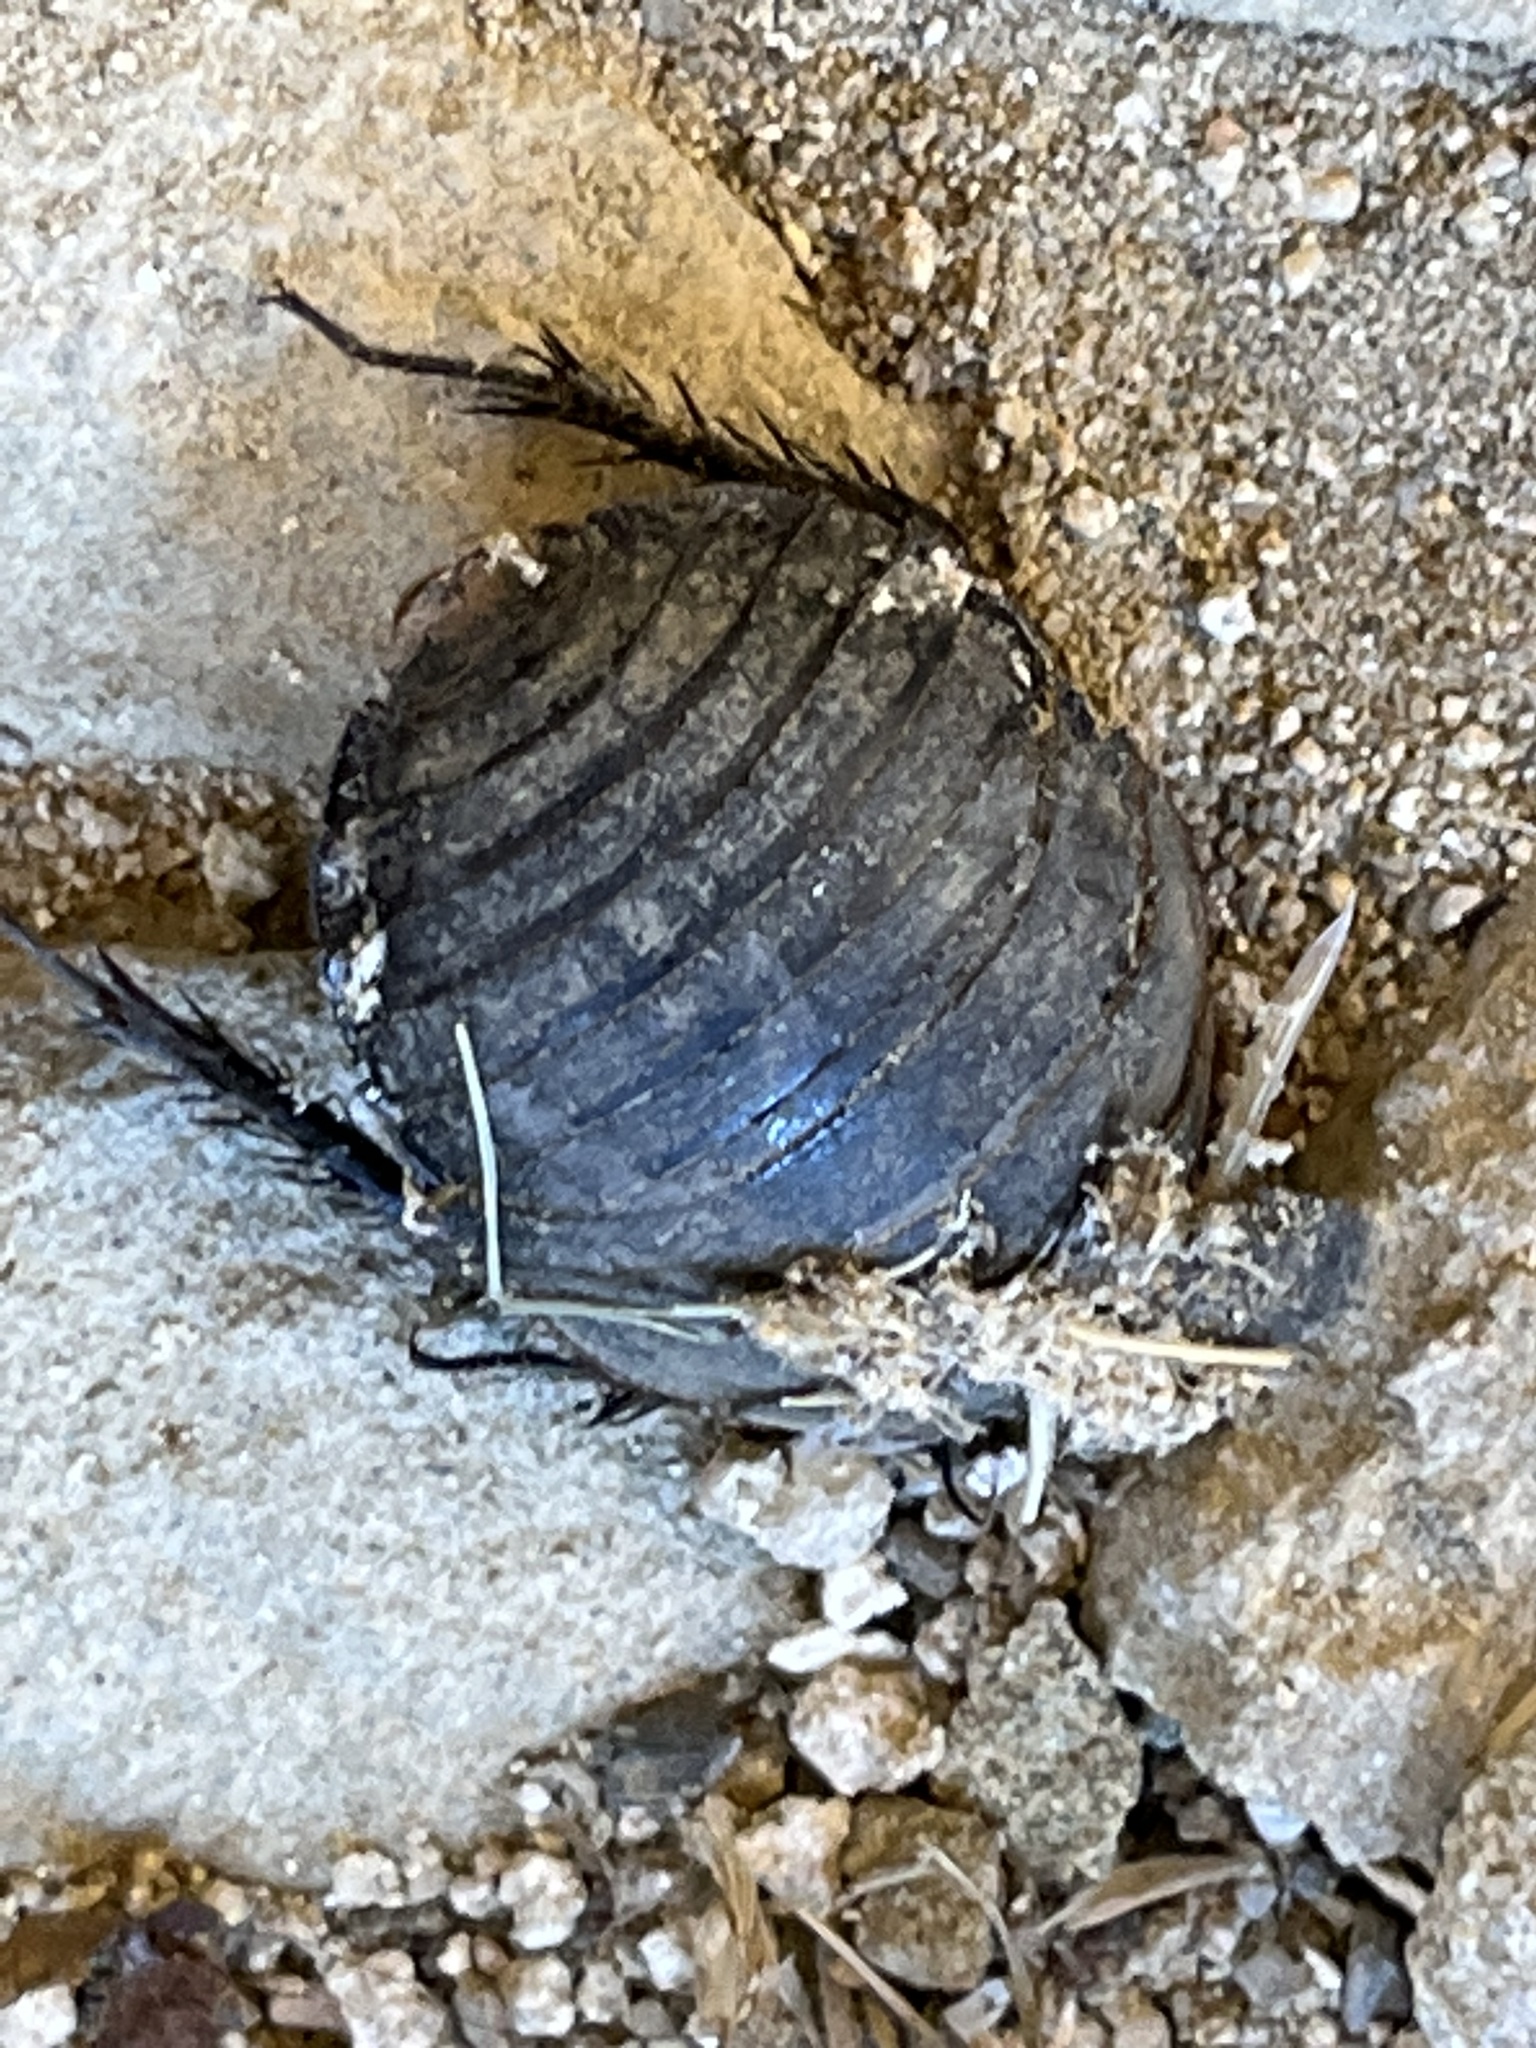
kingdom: Animalia
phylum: Arthropoda
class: Insecta
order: Blattodea
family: Corydiidae
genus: Polyphaga
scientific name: Polyphaga aegyptiaca
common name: Egyptian cockroach
